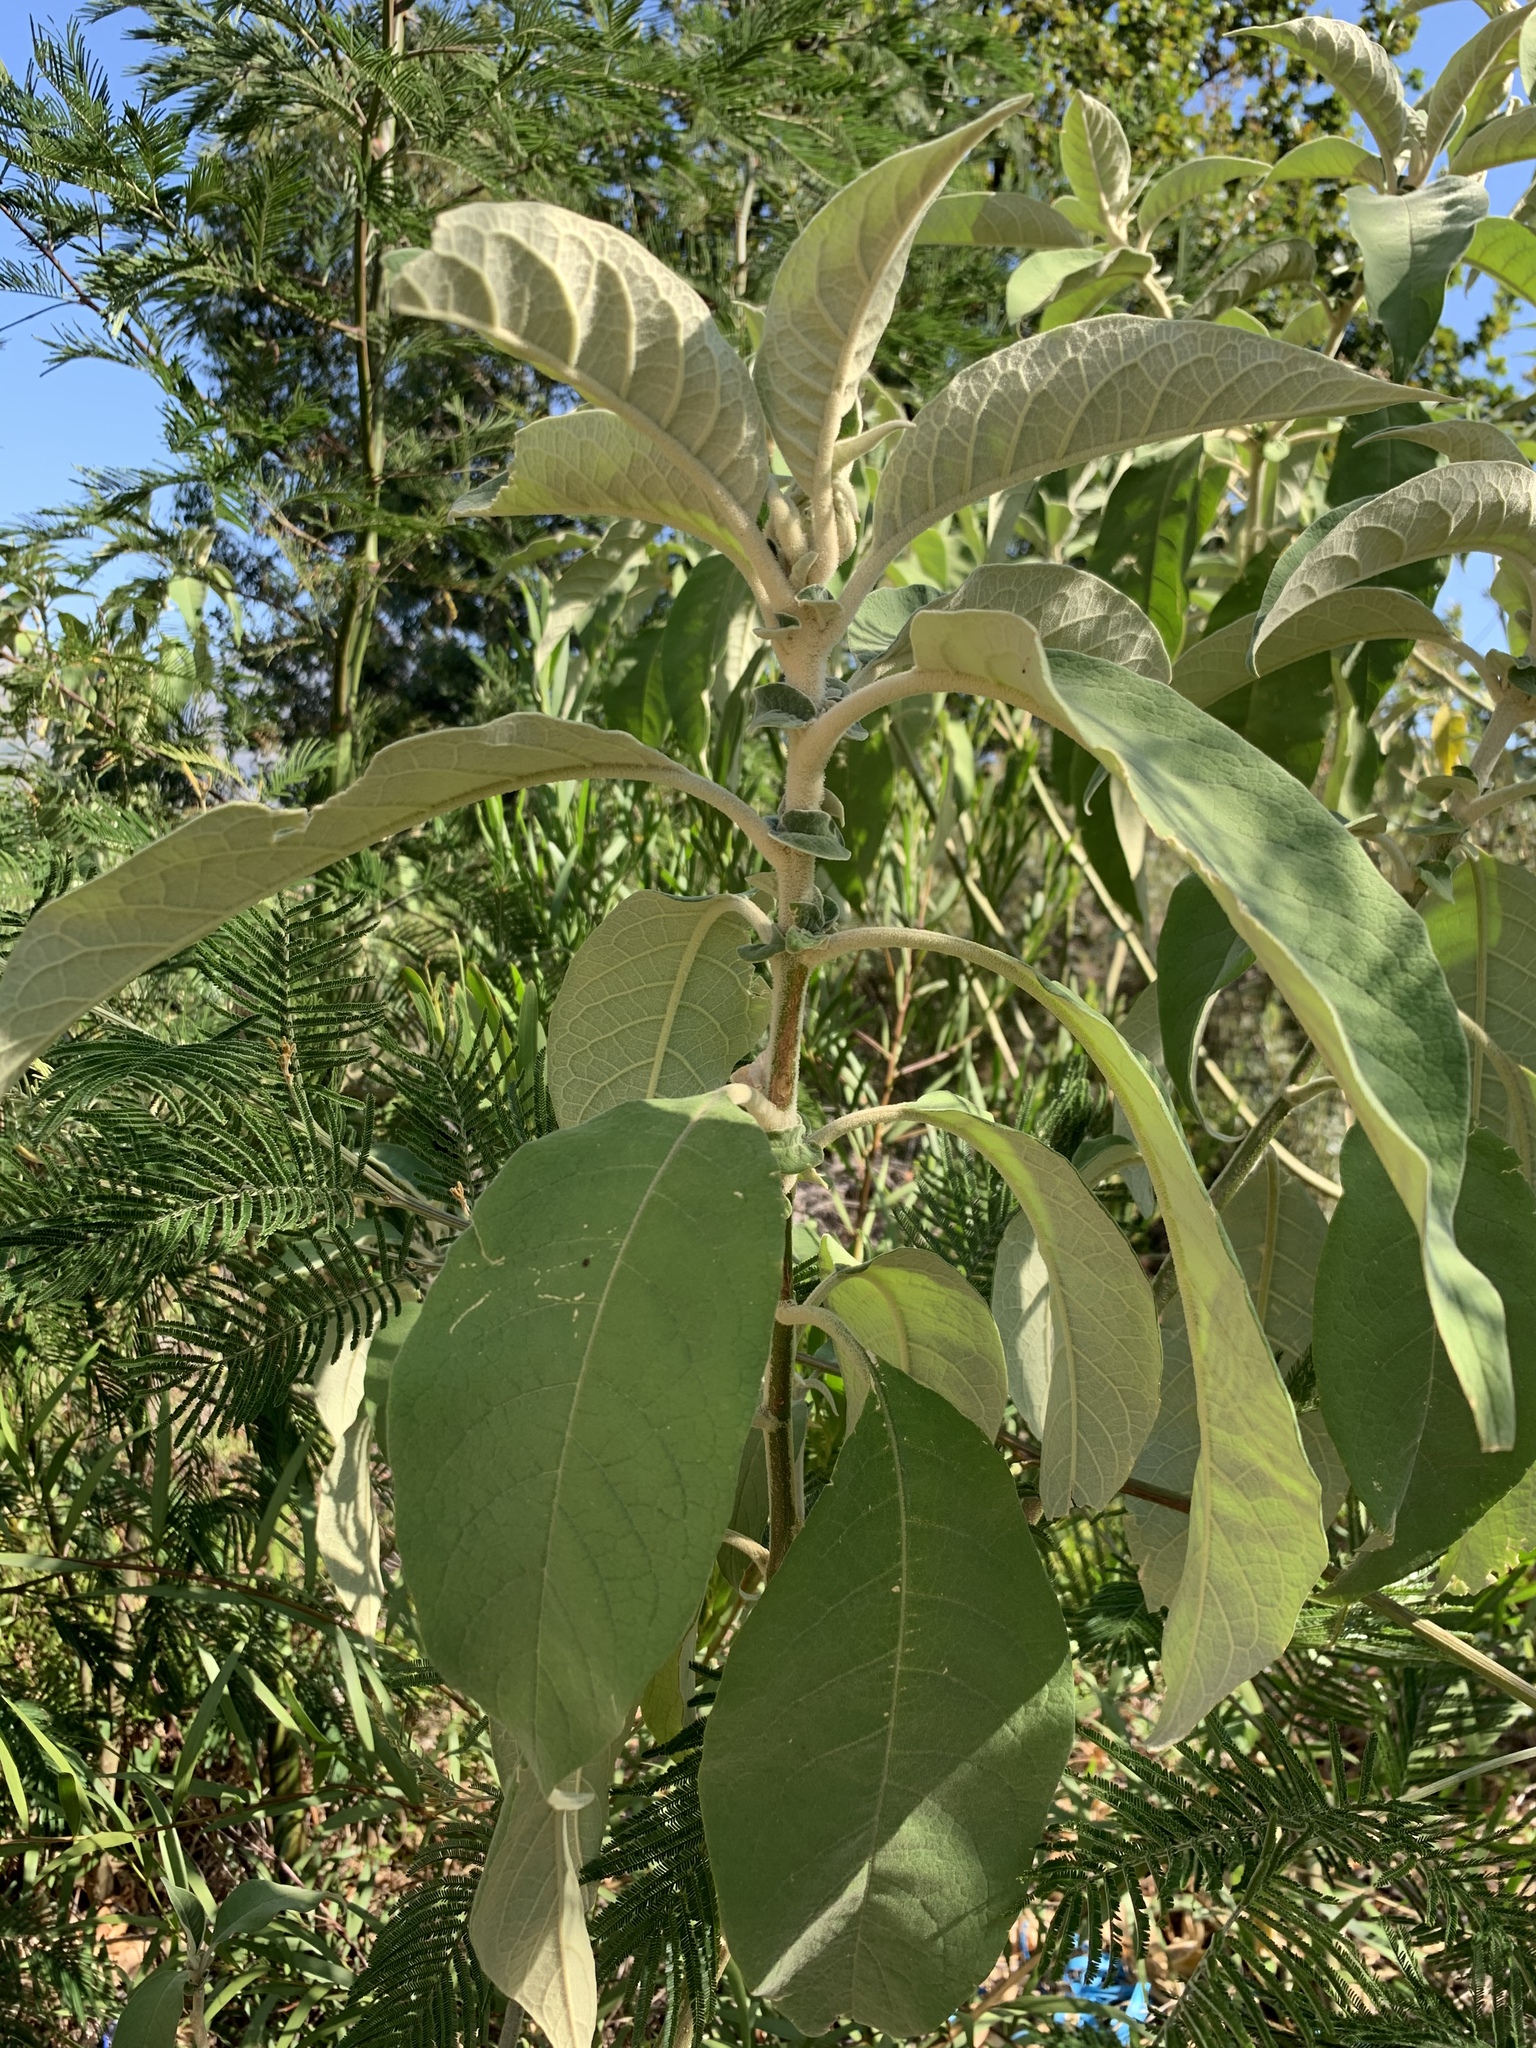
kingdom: Plantae
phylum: Tracheophyta
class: Magnoliopsida
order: Solanales
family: Solanaceae
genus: Solanum
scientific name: Solanum mauritianum
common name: Earleaf nightshade
